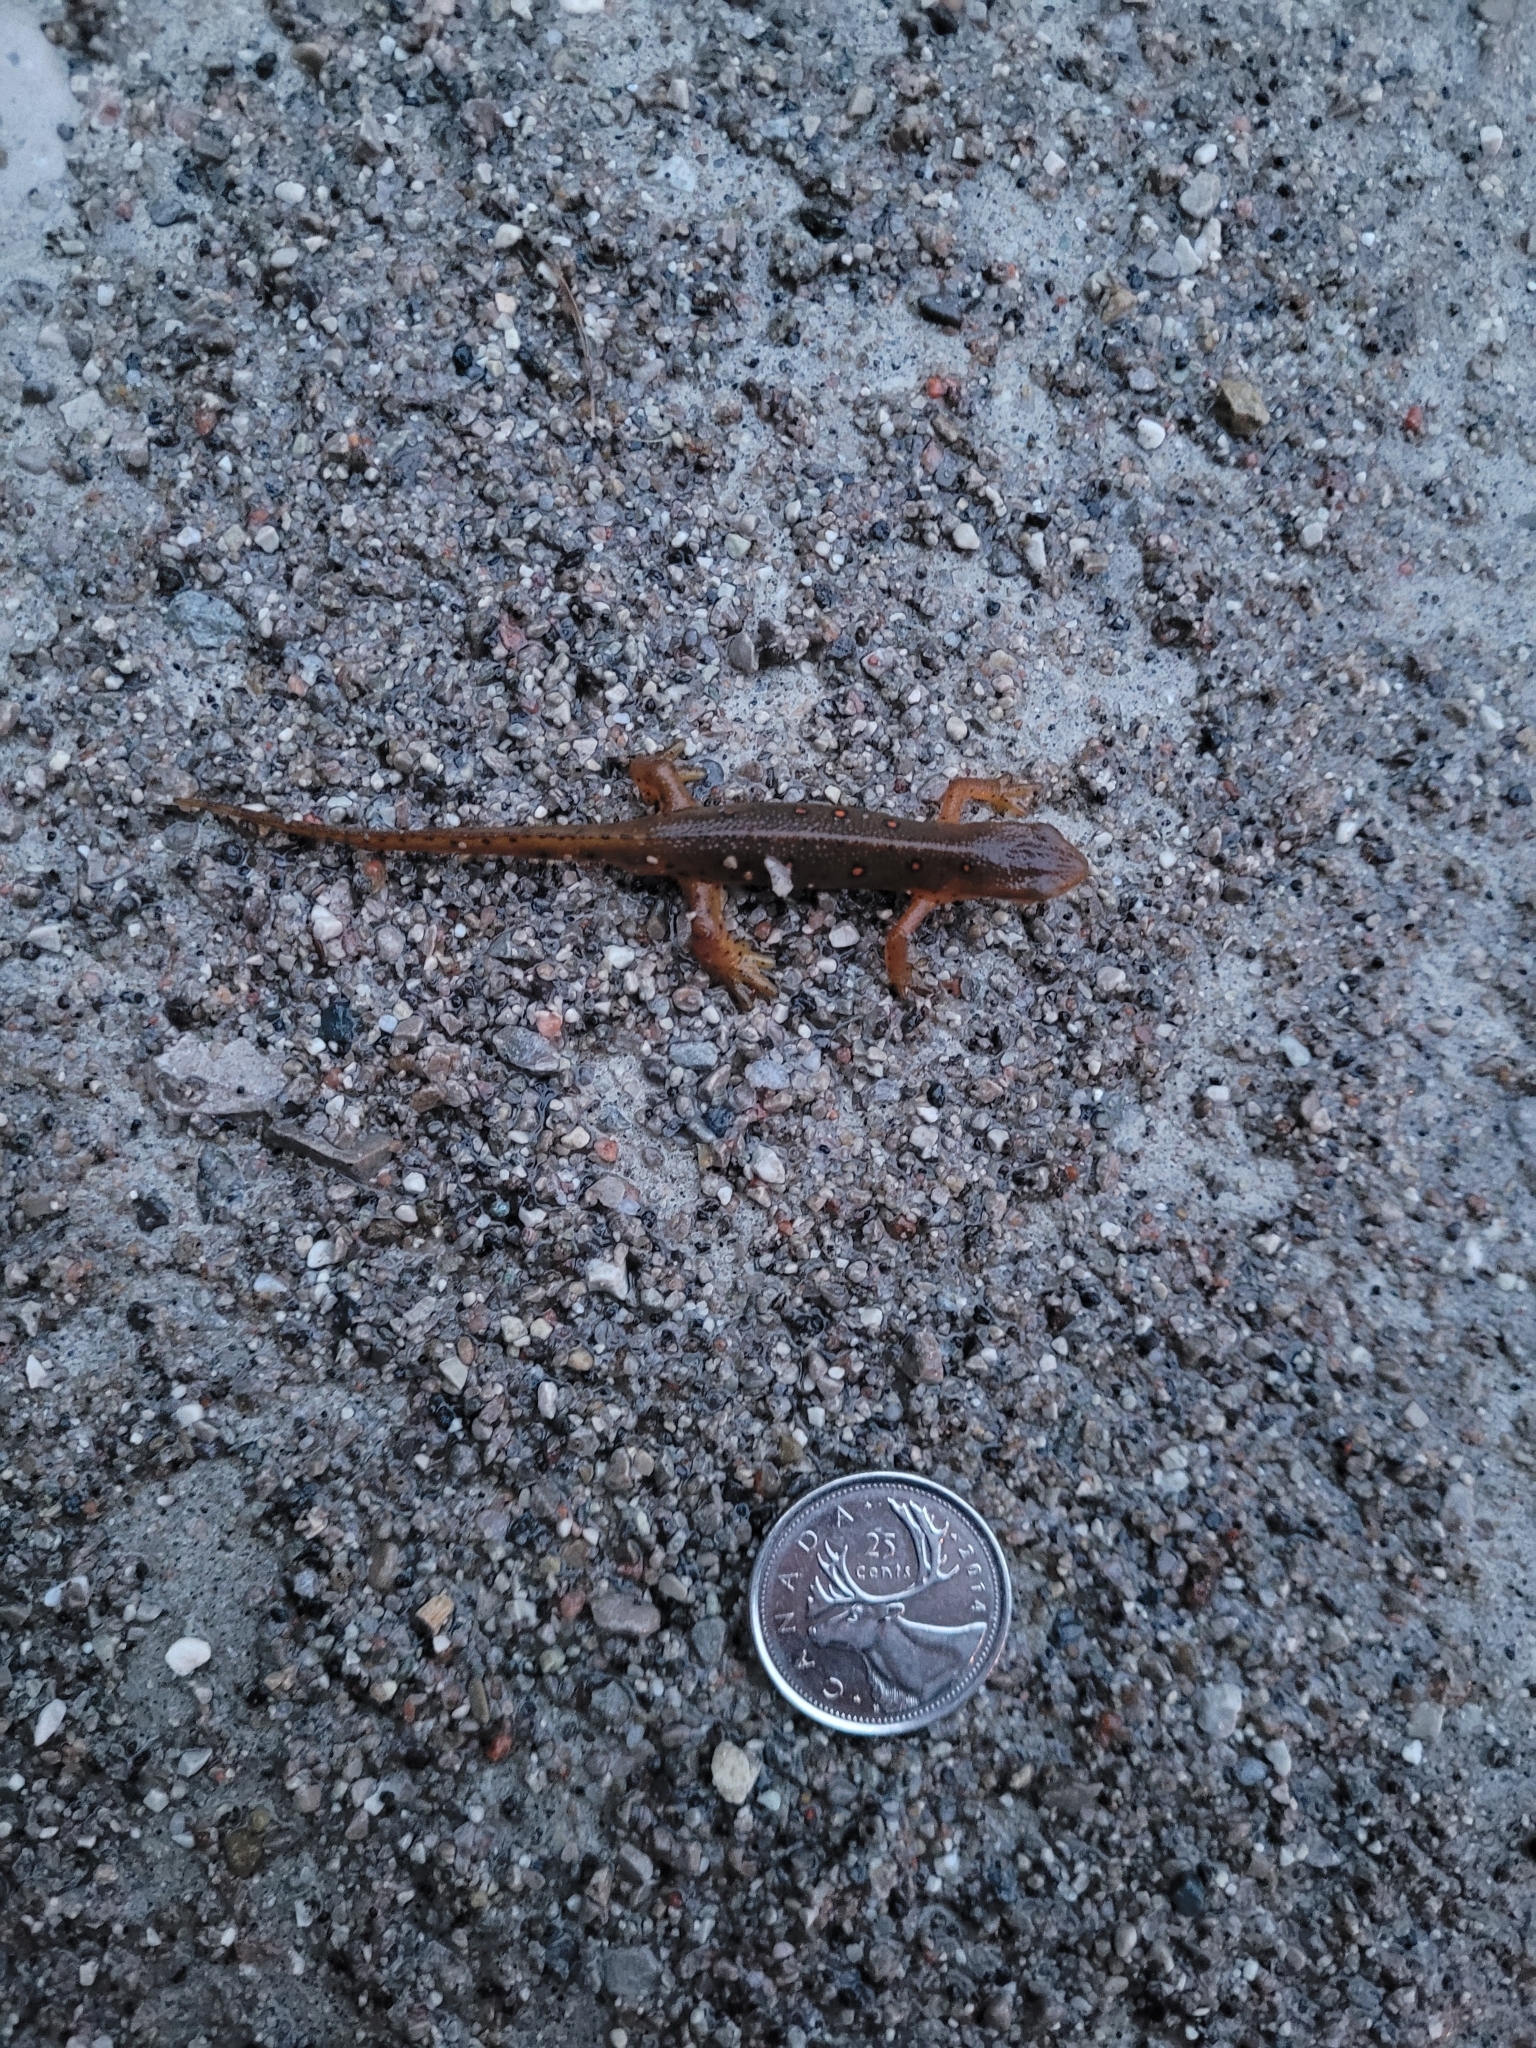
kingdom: Animalia
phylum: Chordata
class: Amphibia
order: Caudata
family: Salamandridae
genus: Notophthalmus
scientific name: Notophthalmus viridescens
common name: Eastern newt
